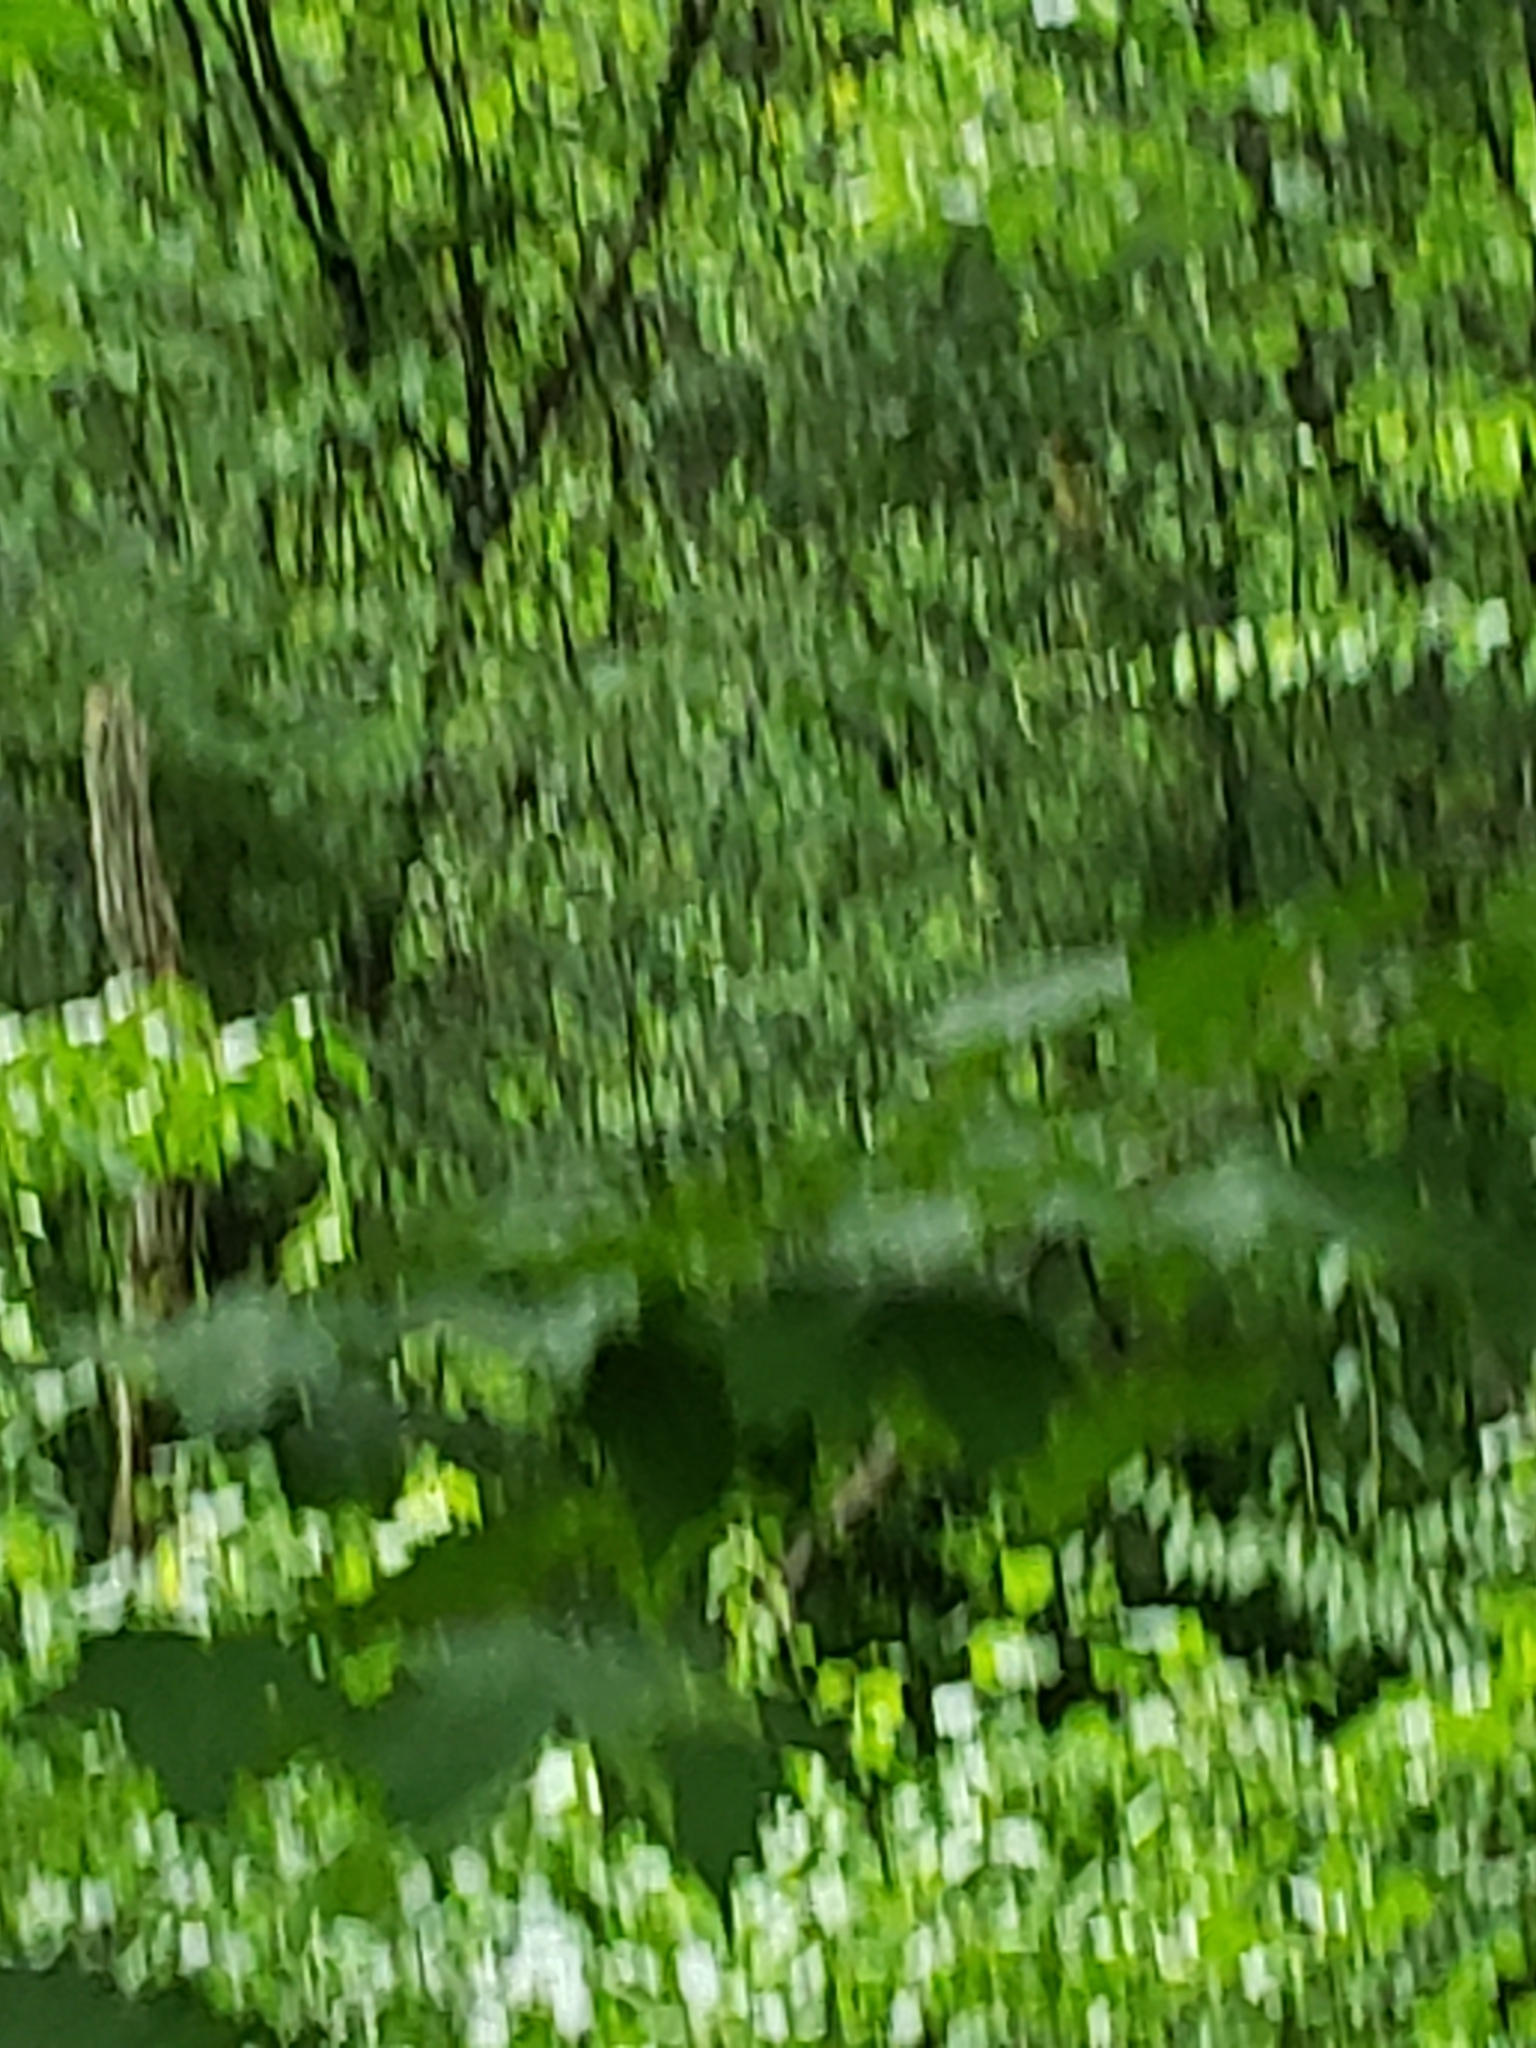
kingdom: Animalia
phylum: Chordata
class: Aves
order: Galliformes
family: Phasianidae
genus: Meleagris
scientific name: Meleagris gallopavo
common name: Wild turkey
